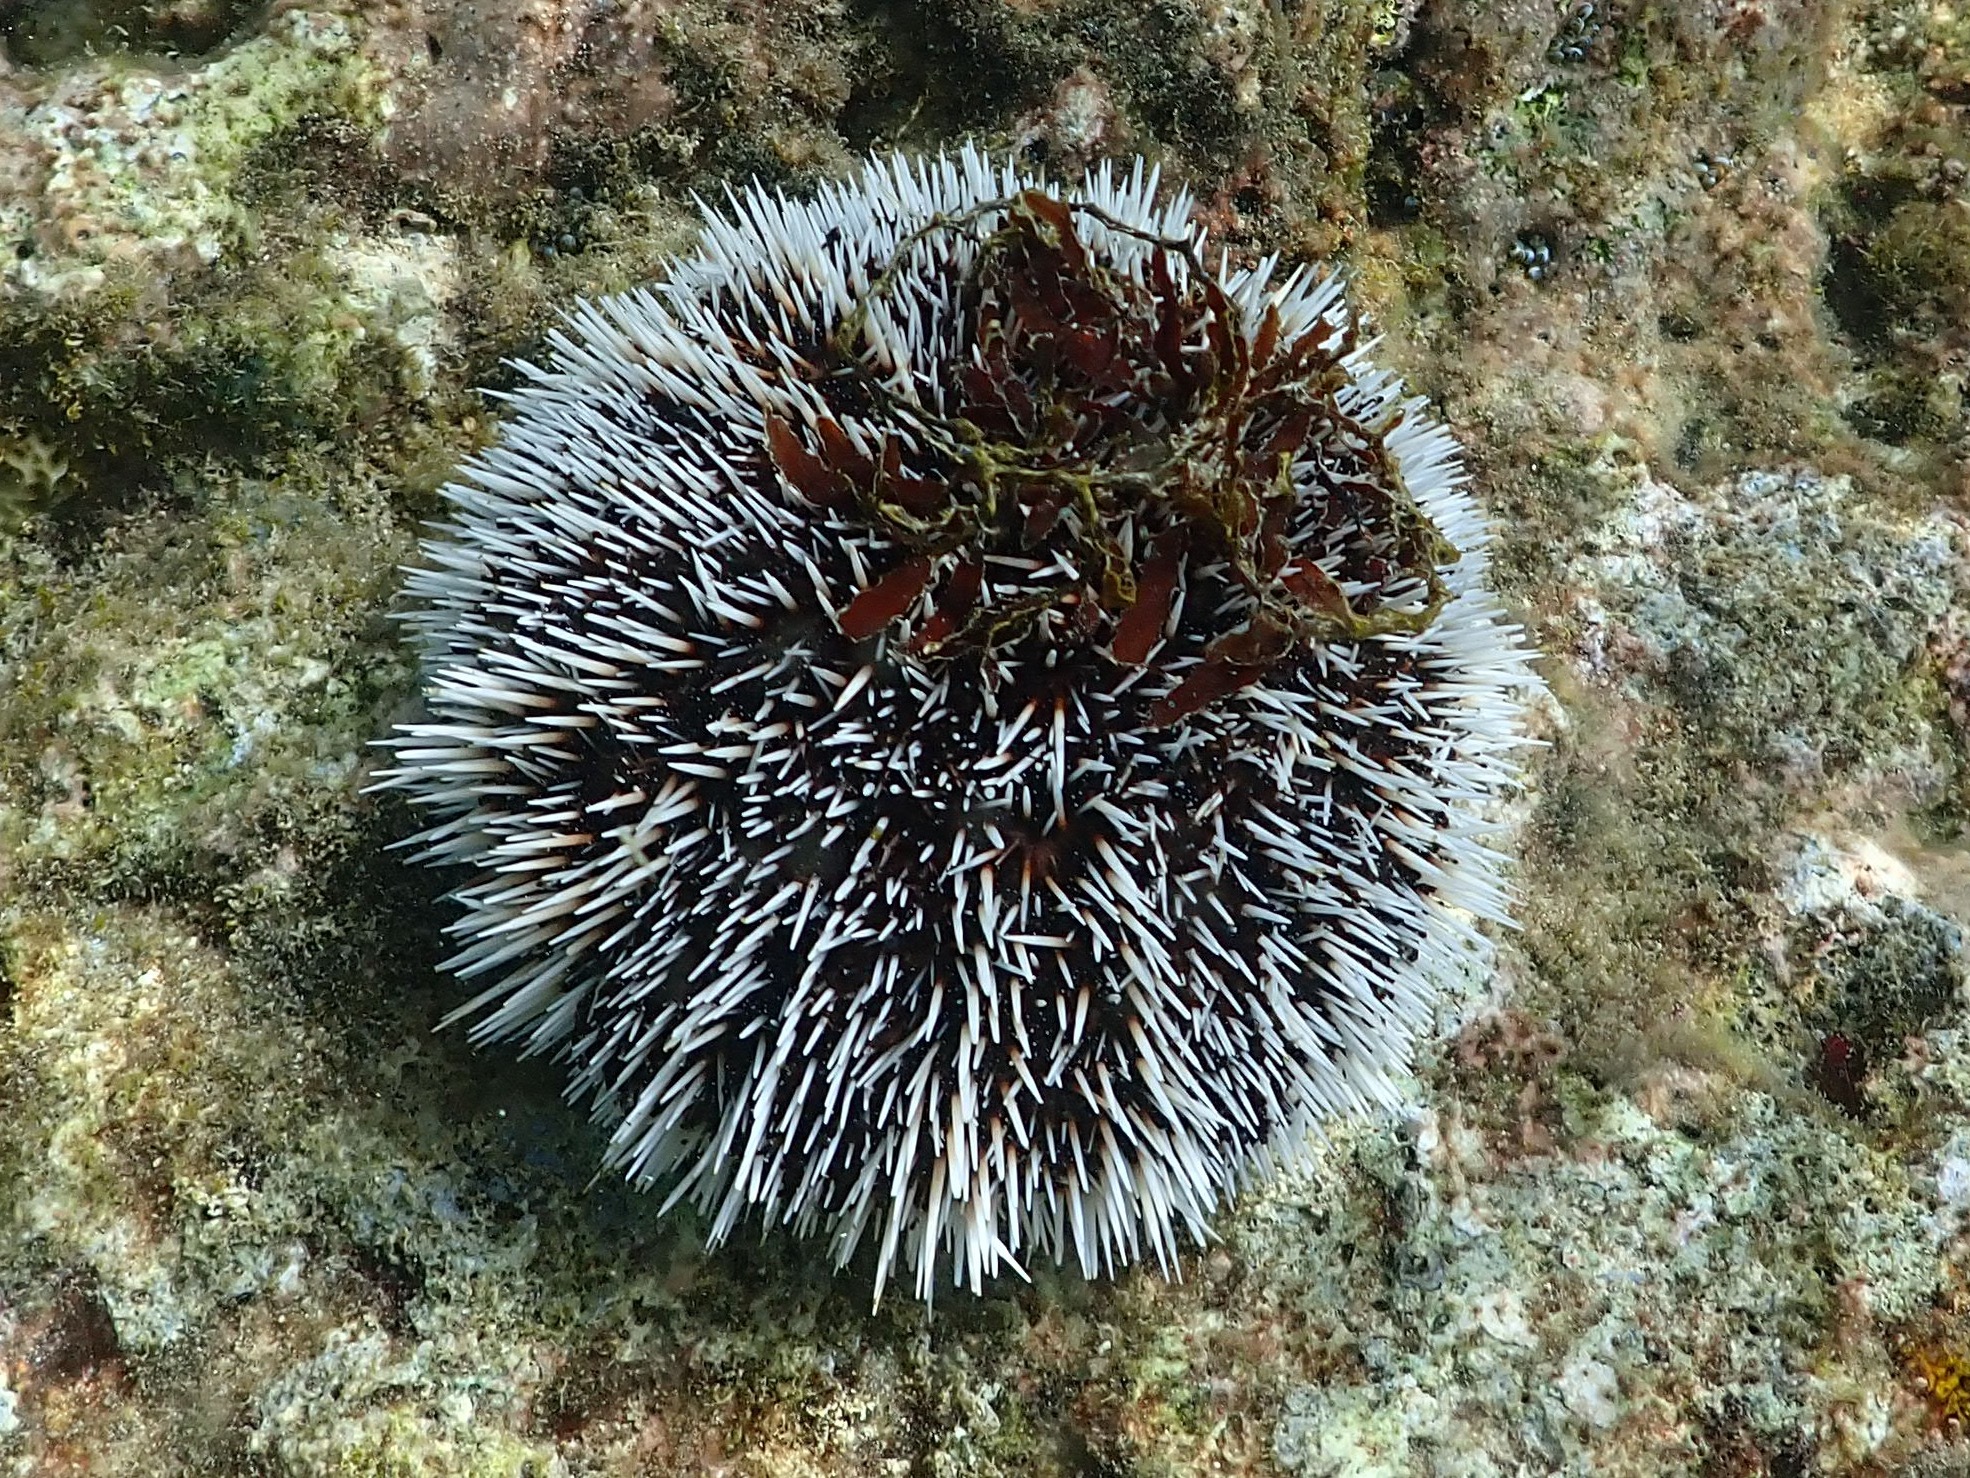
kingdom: Animalia
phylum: Echinodermata
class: Echinoidea
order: Camarodonta
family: Toxopneustidae
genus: Tripneustes
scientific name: Tripneustes ventricosus
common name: West indian sea egg
